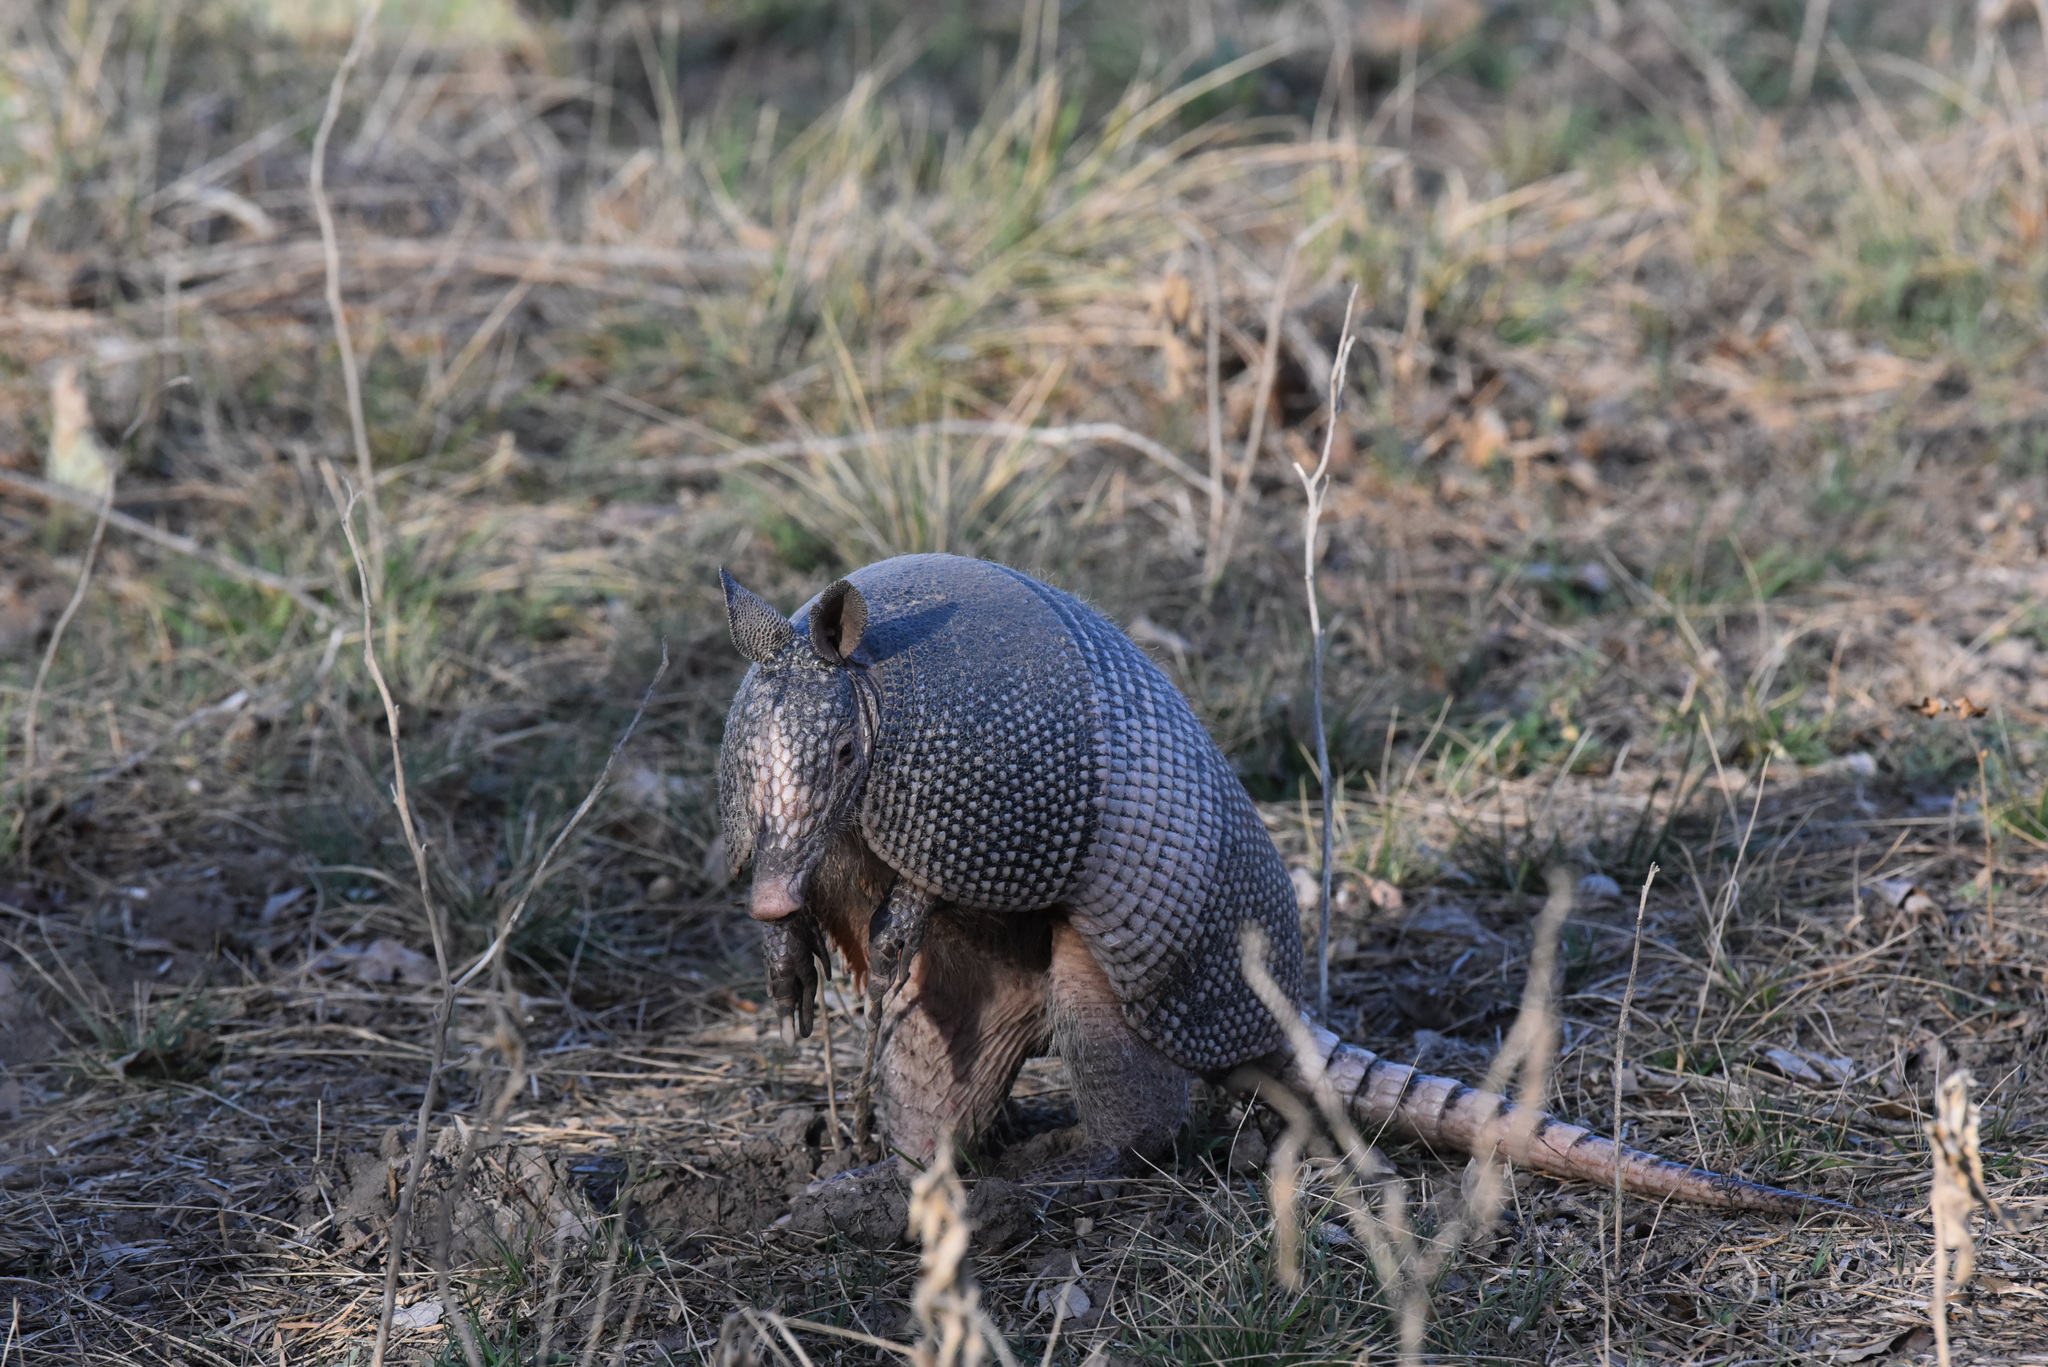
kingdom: Animalia
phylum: Chordata
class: Mammalia
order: Cingulata
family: Dasypodidae
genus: Dasypus
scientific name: Dasypus novemcinctus
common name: Nine-banded armadillo
